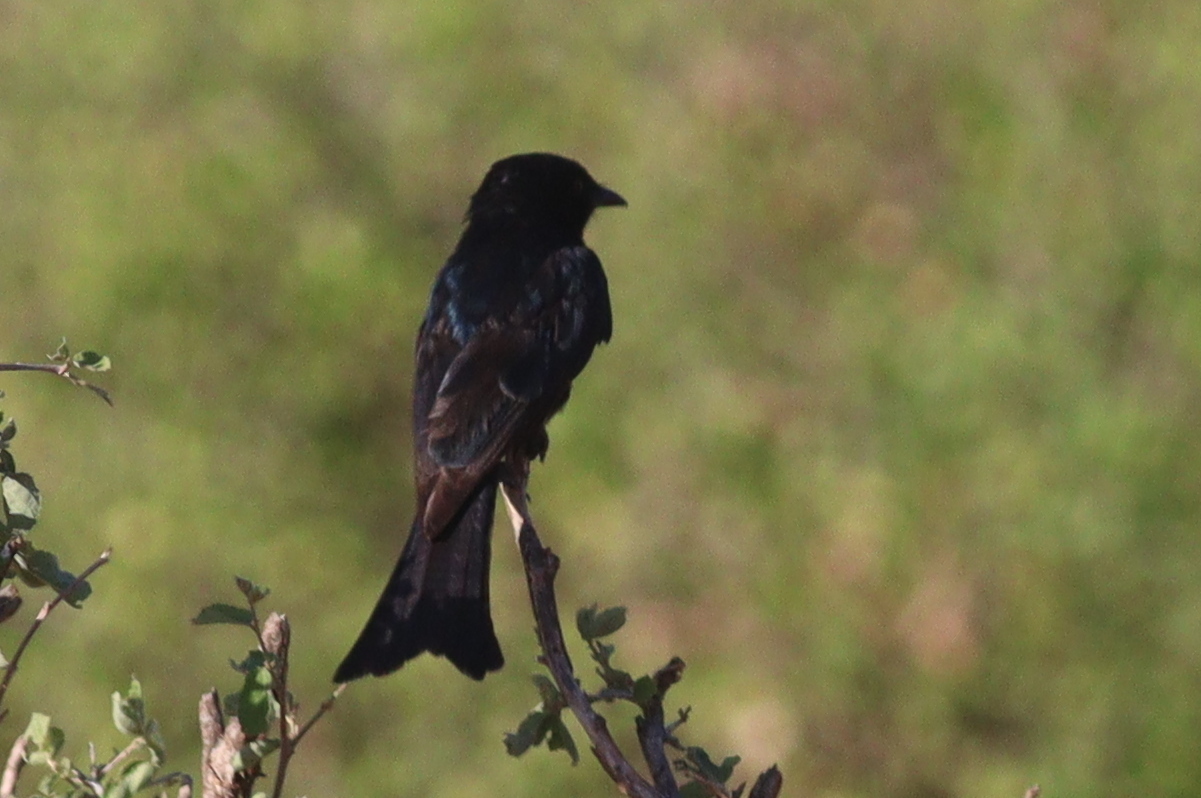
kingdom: Animalia
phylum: Chordata
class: Aves
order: Passeriformes
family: Dicruridae
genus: Dicrurus
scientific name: Dicrurus adsimilis
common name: Fork-tailed drongo
